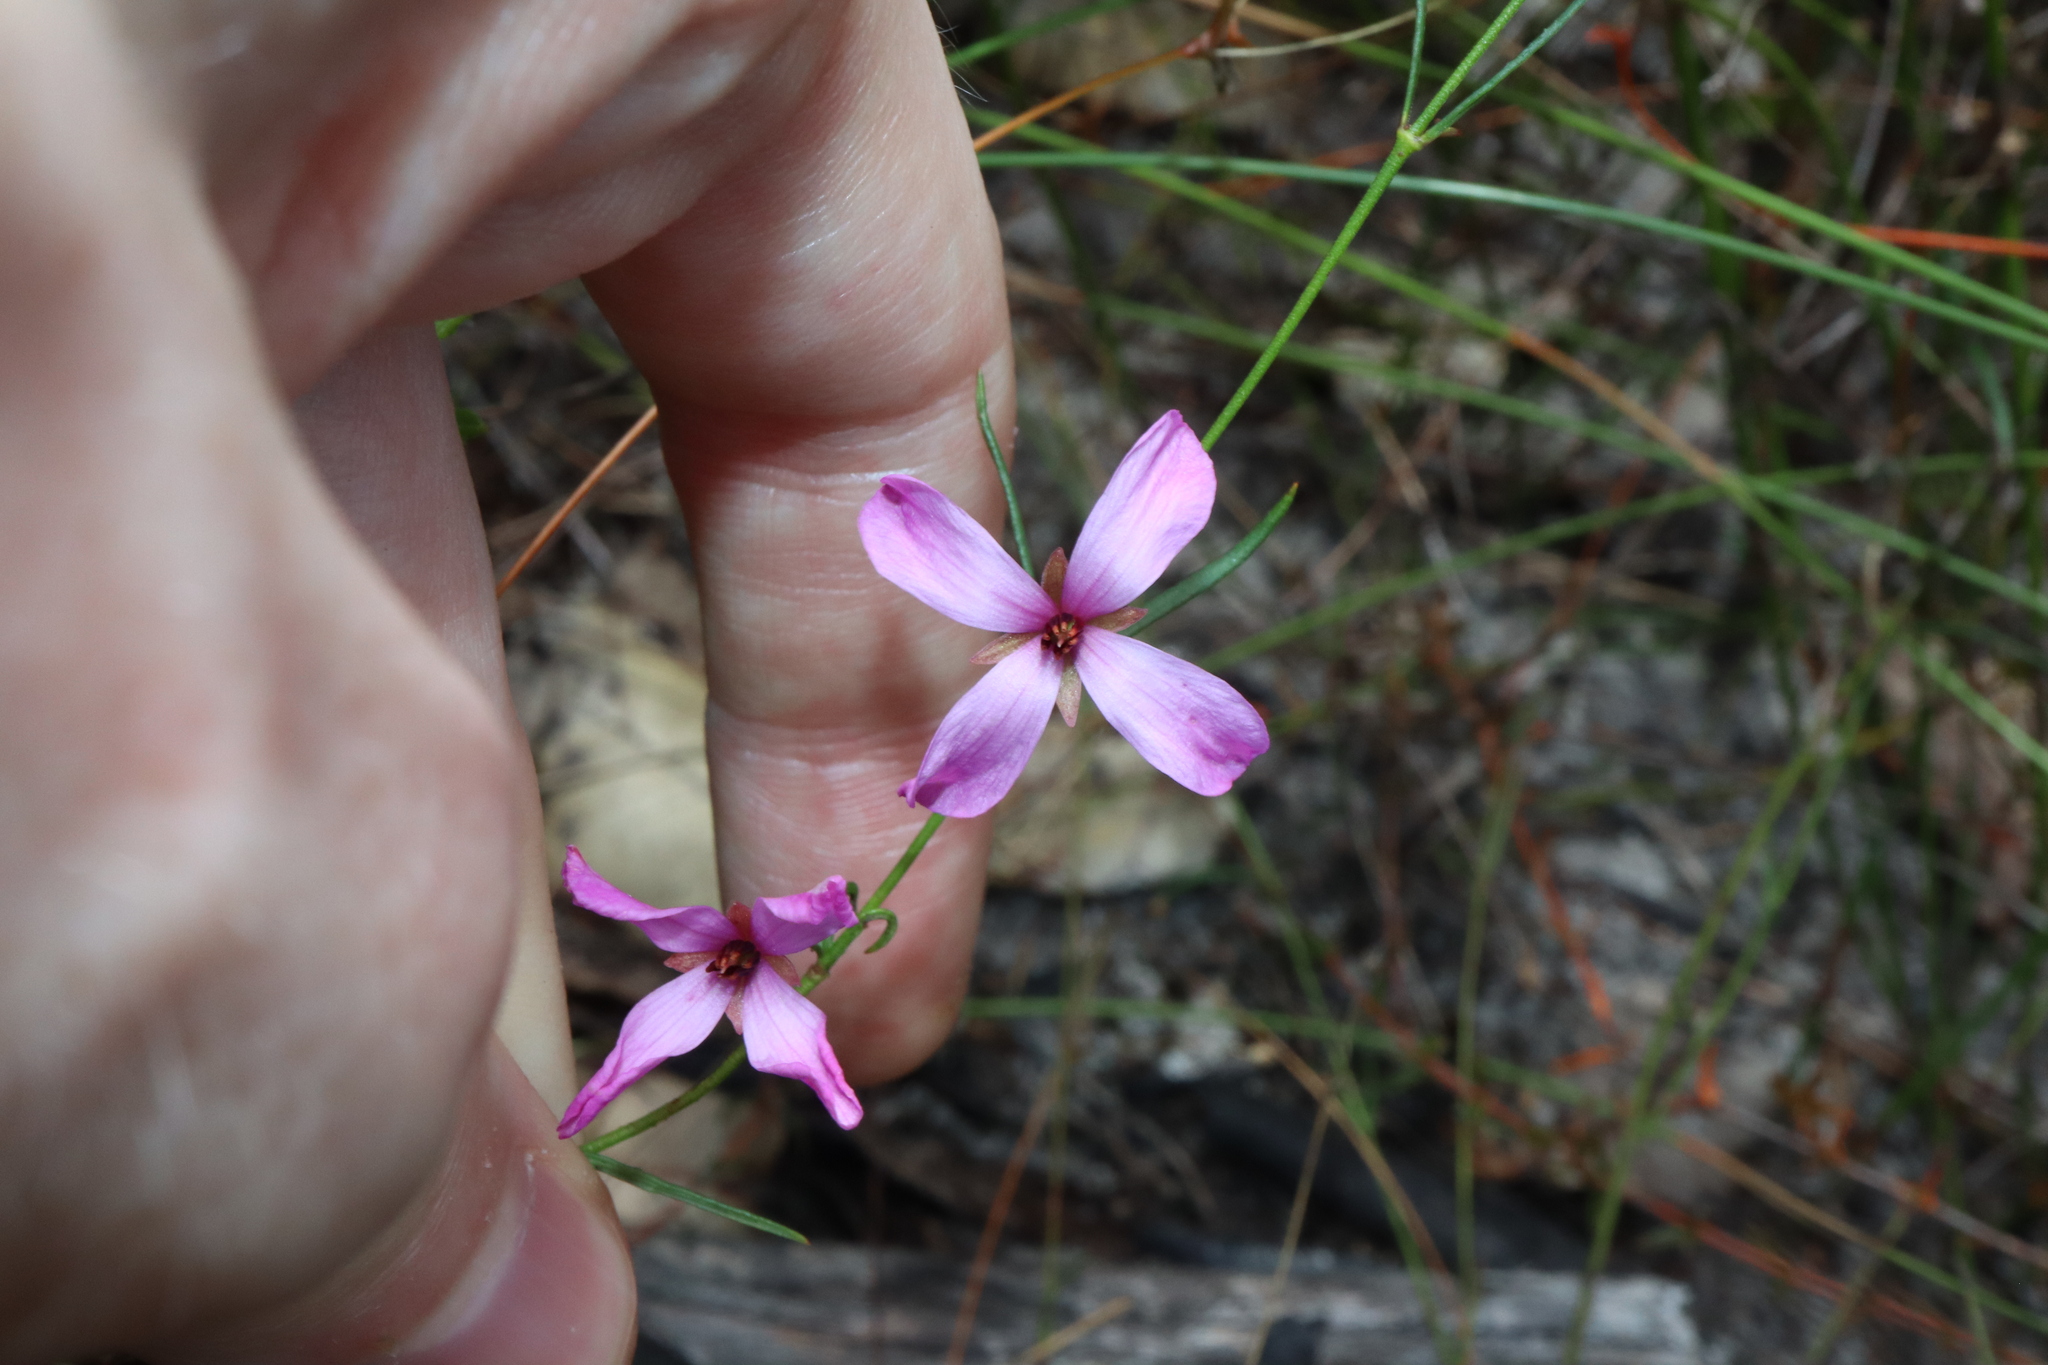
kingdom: Plantae
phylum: Tracheophyta
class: Magnoliopsida
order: Oxalidales
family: Elaeocarpaceae
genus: Tetratheca
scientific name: Tetratheca shiressii
